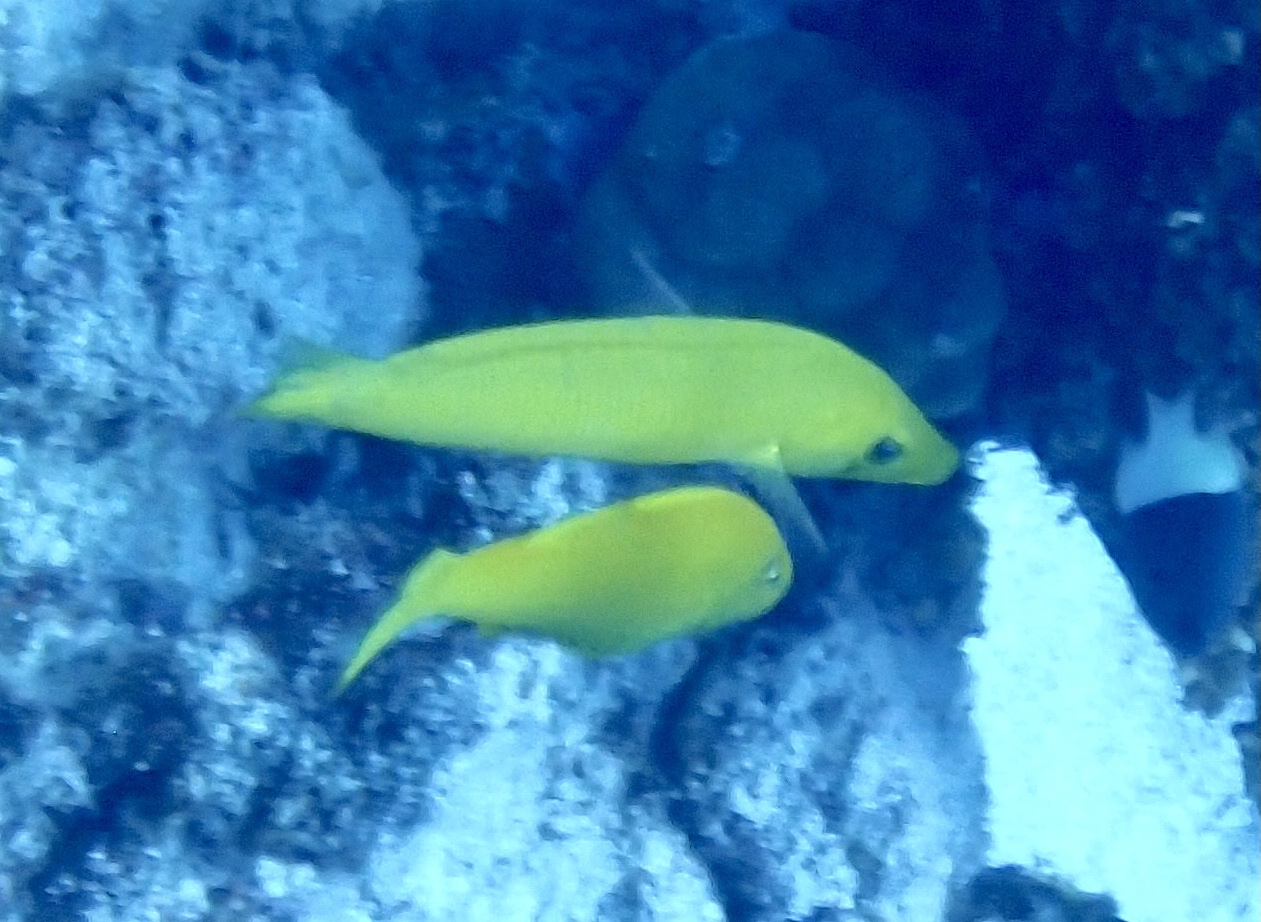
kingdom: Animalia
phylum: Chordata
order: Perciformes
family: Labridae
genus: Cheilio
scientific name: Cheilio inermis
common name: Cigar wrasse
